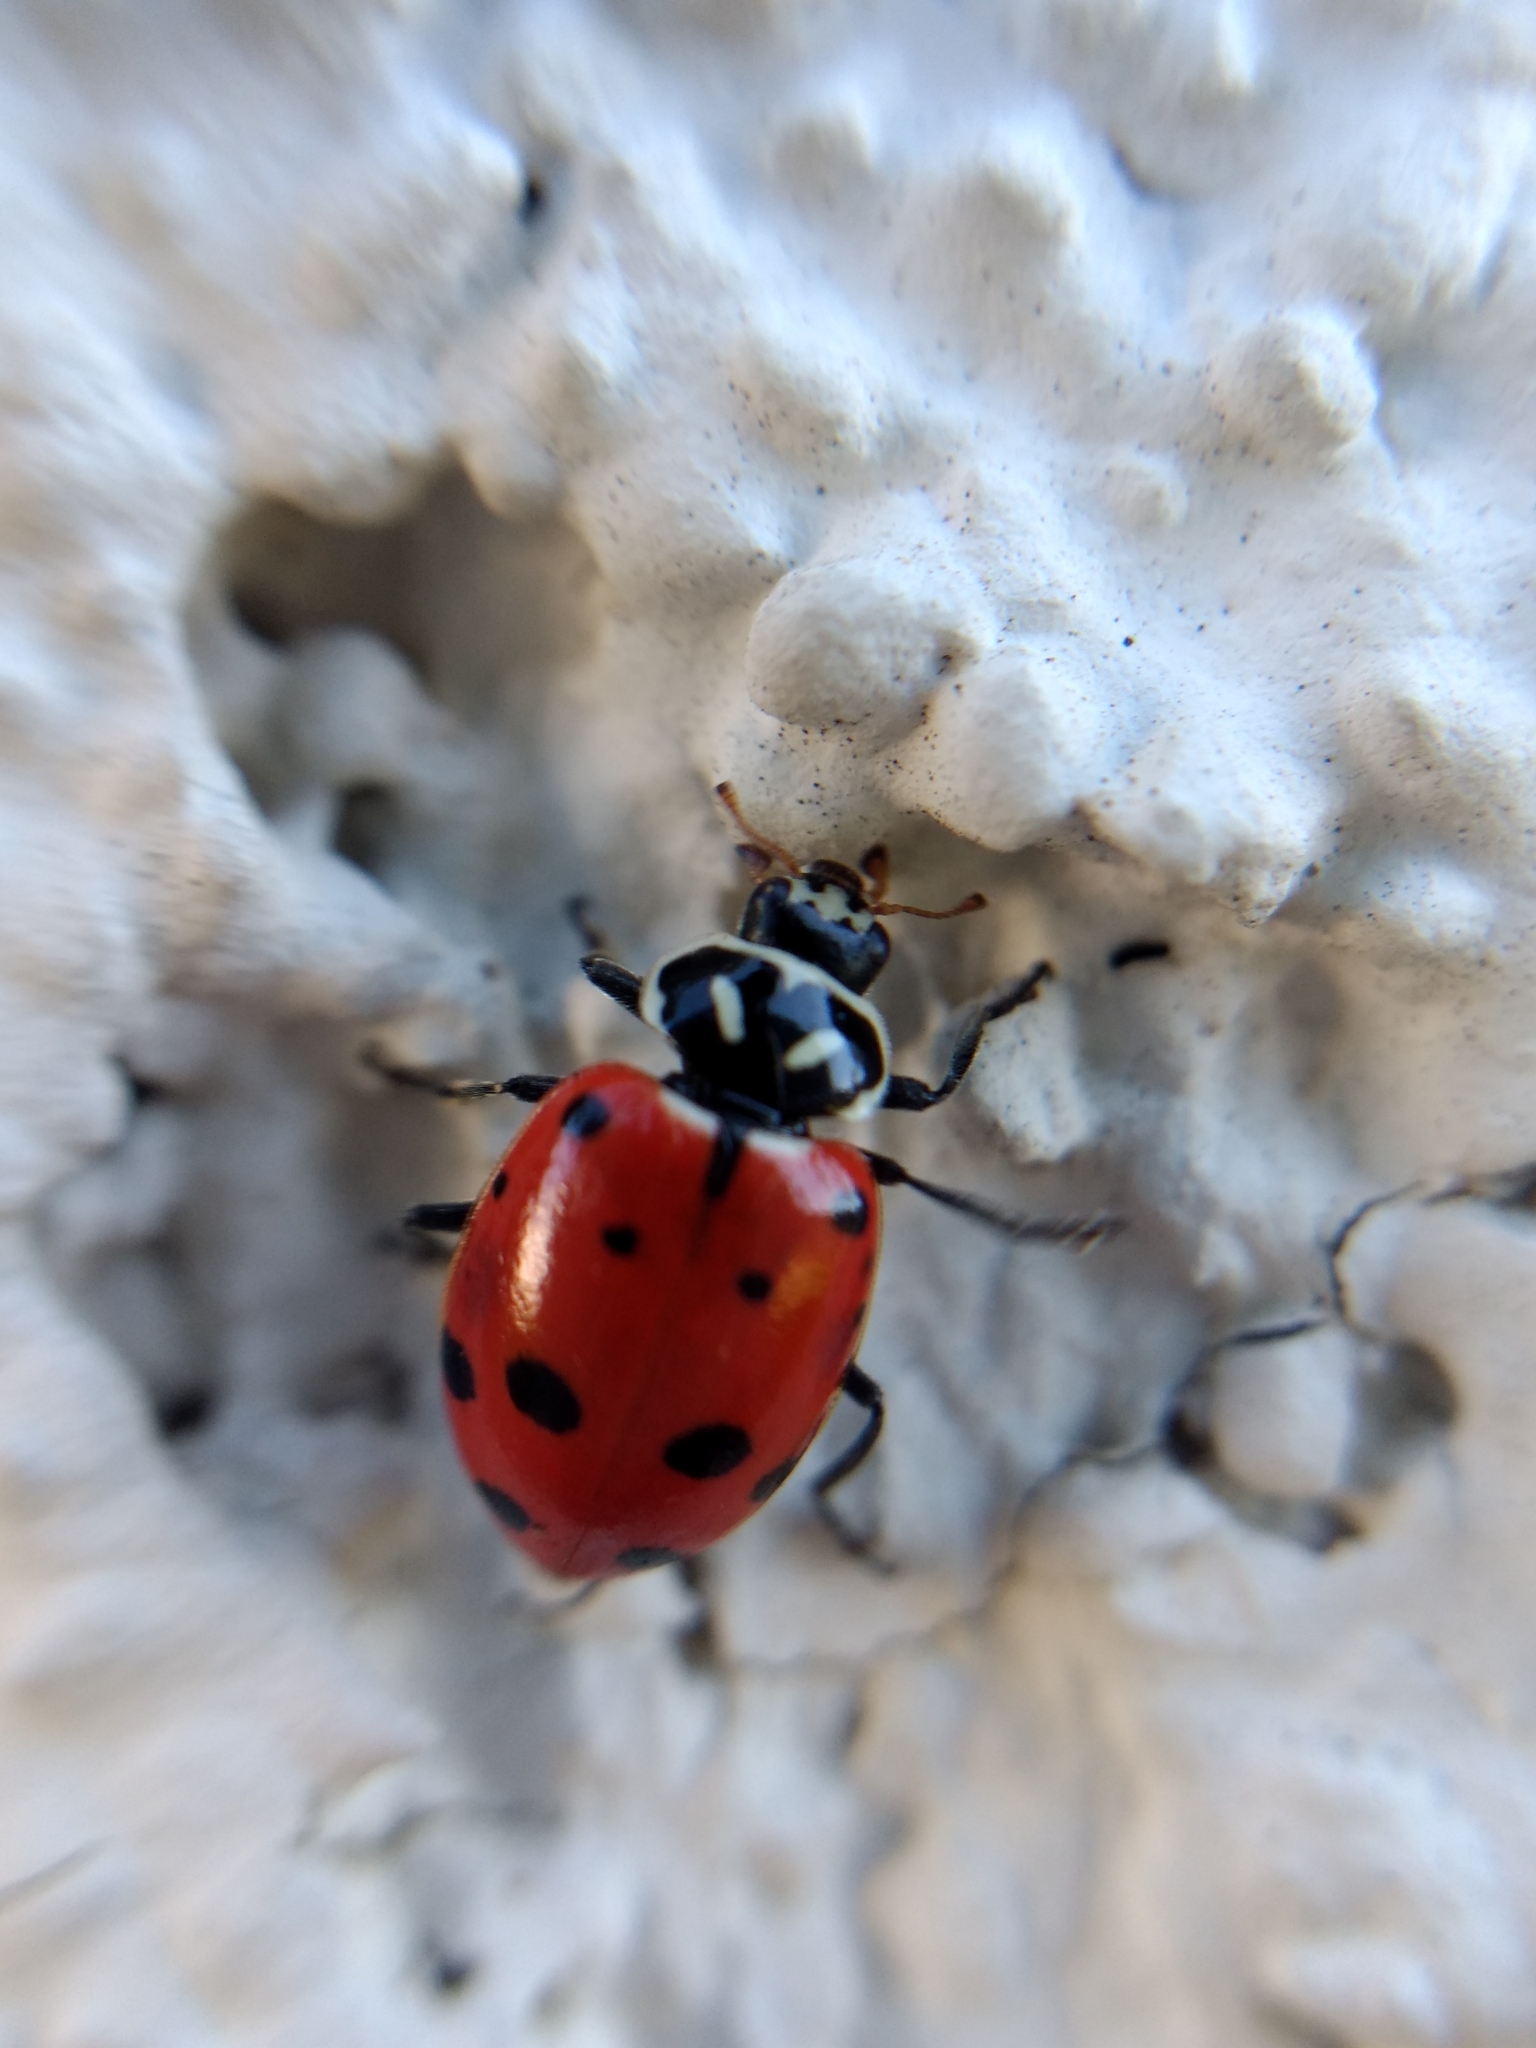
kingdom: Animalia
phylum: Arthropoda
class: Insecta
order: Coleoptera
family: Coccinellidae
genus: Hippodamia
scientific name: Hippodamia convergens
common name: Convergent lady beetle
